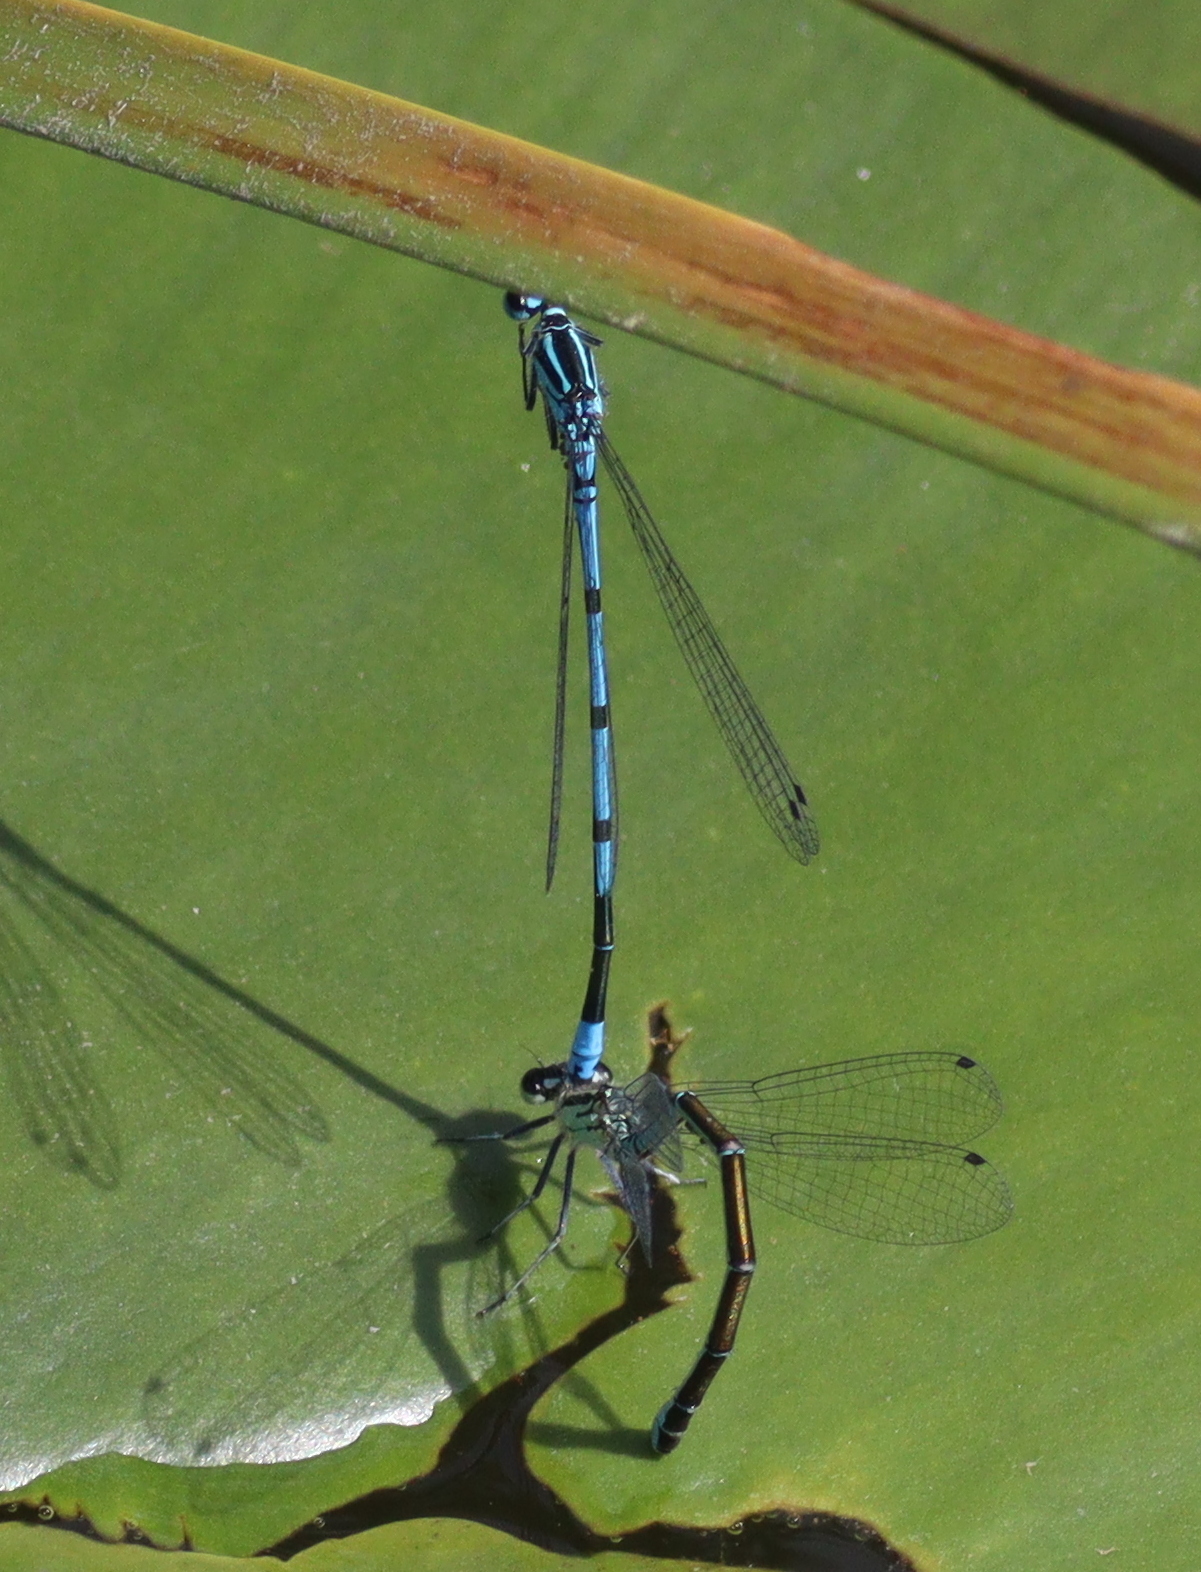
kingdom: Animalia
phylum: Arthropoda
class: Insecta
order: Odonata
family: Coenagrionidae
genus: Coenagrion
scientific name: Coenagrion puella
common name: Azure damselfly
